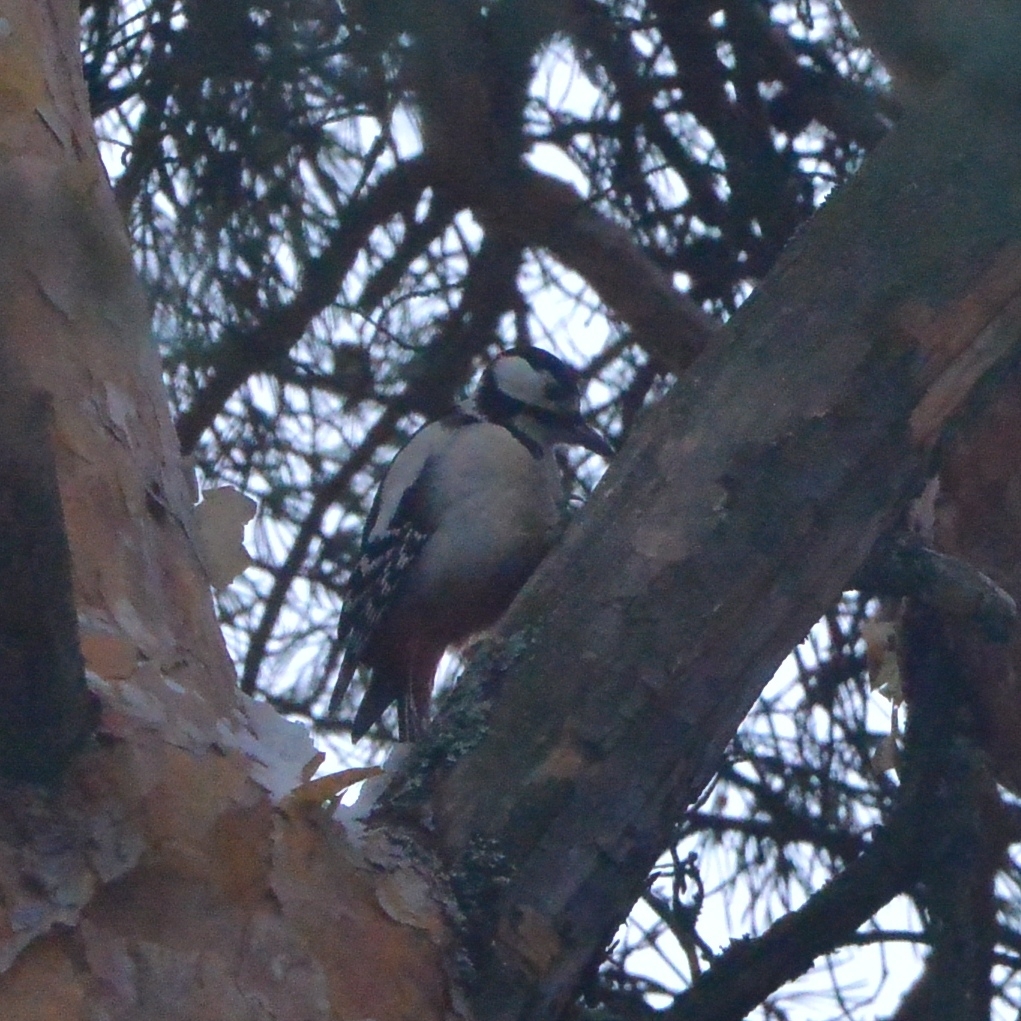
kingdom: Animalia
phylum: Chordata
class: Aves
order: Piciformes
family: Picidae
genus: Dendrocopos
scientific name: Dendrocopos major
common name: Great spotted woodpecker
